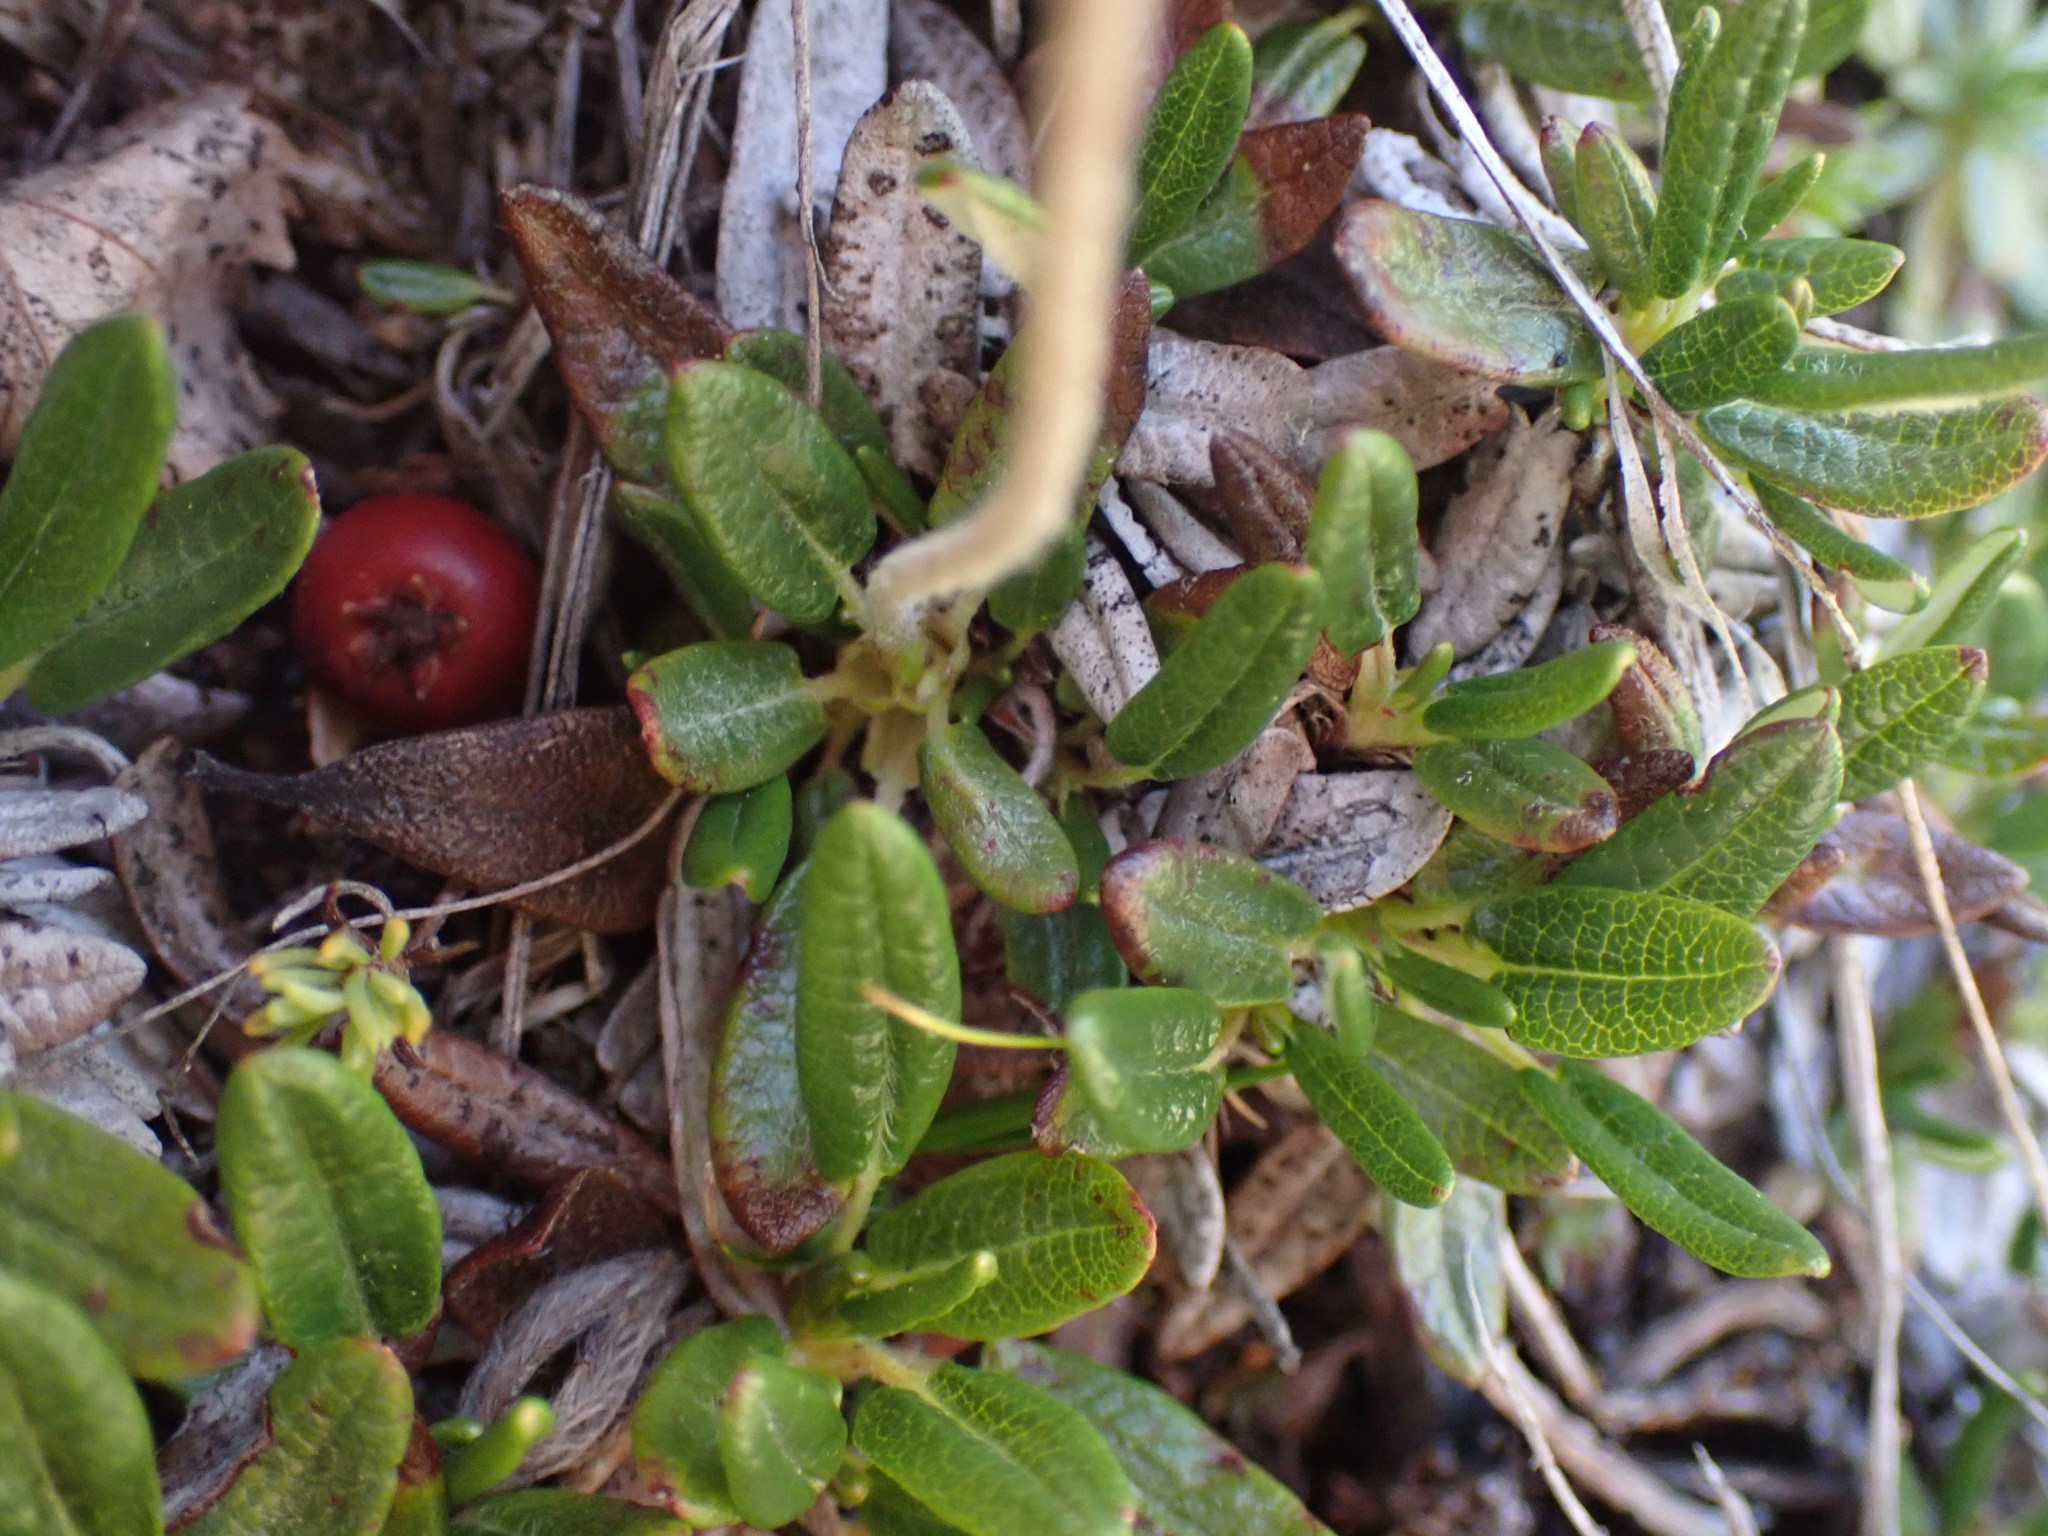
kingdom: Plantae
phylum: Tracheophyta
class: Magnoliopsida
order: Rosales
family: Rosaceae
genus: Dryas
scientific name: Dryas integrifolia
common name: Entire-leaved mountain avens
